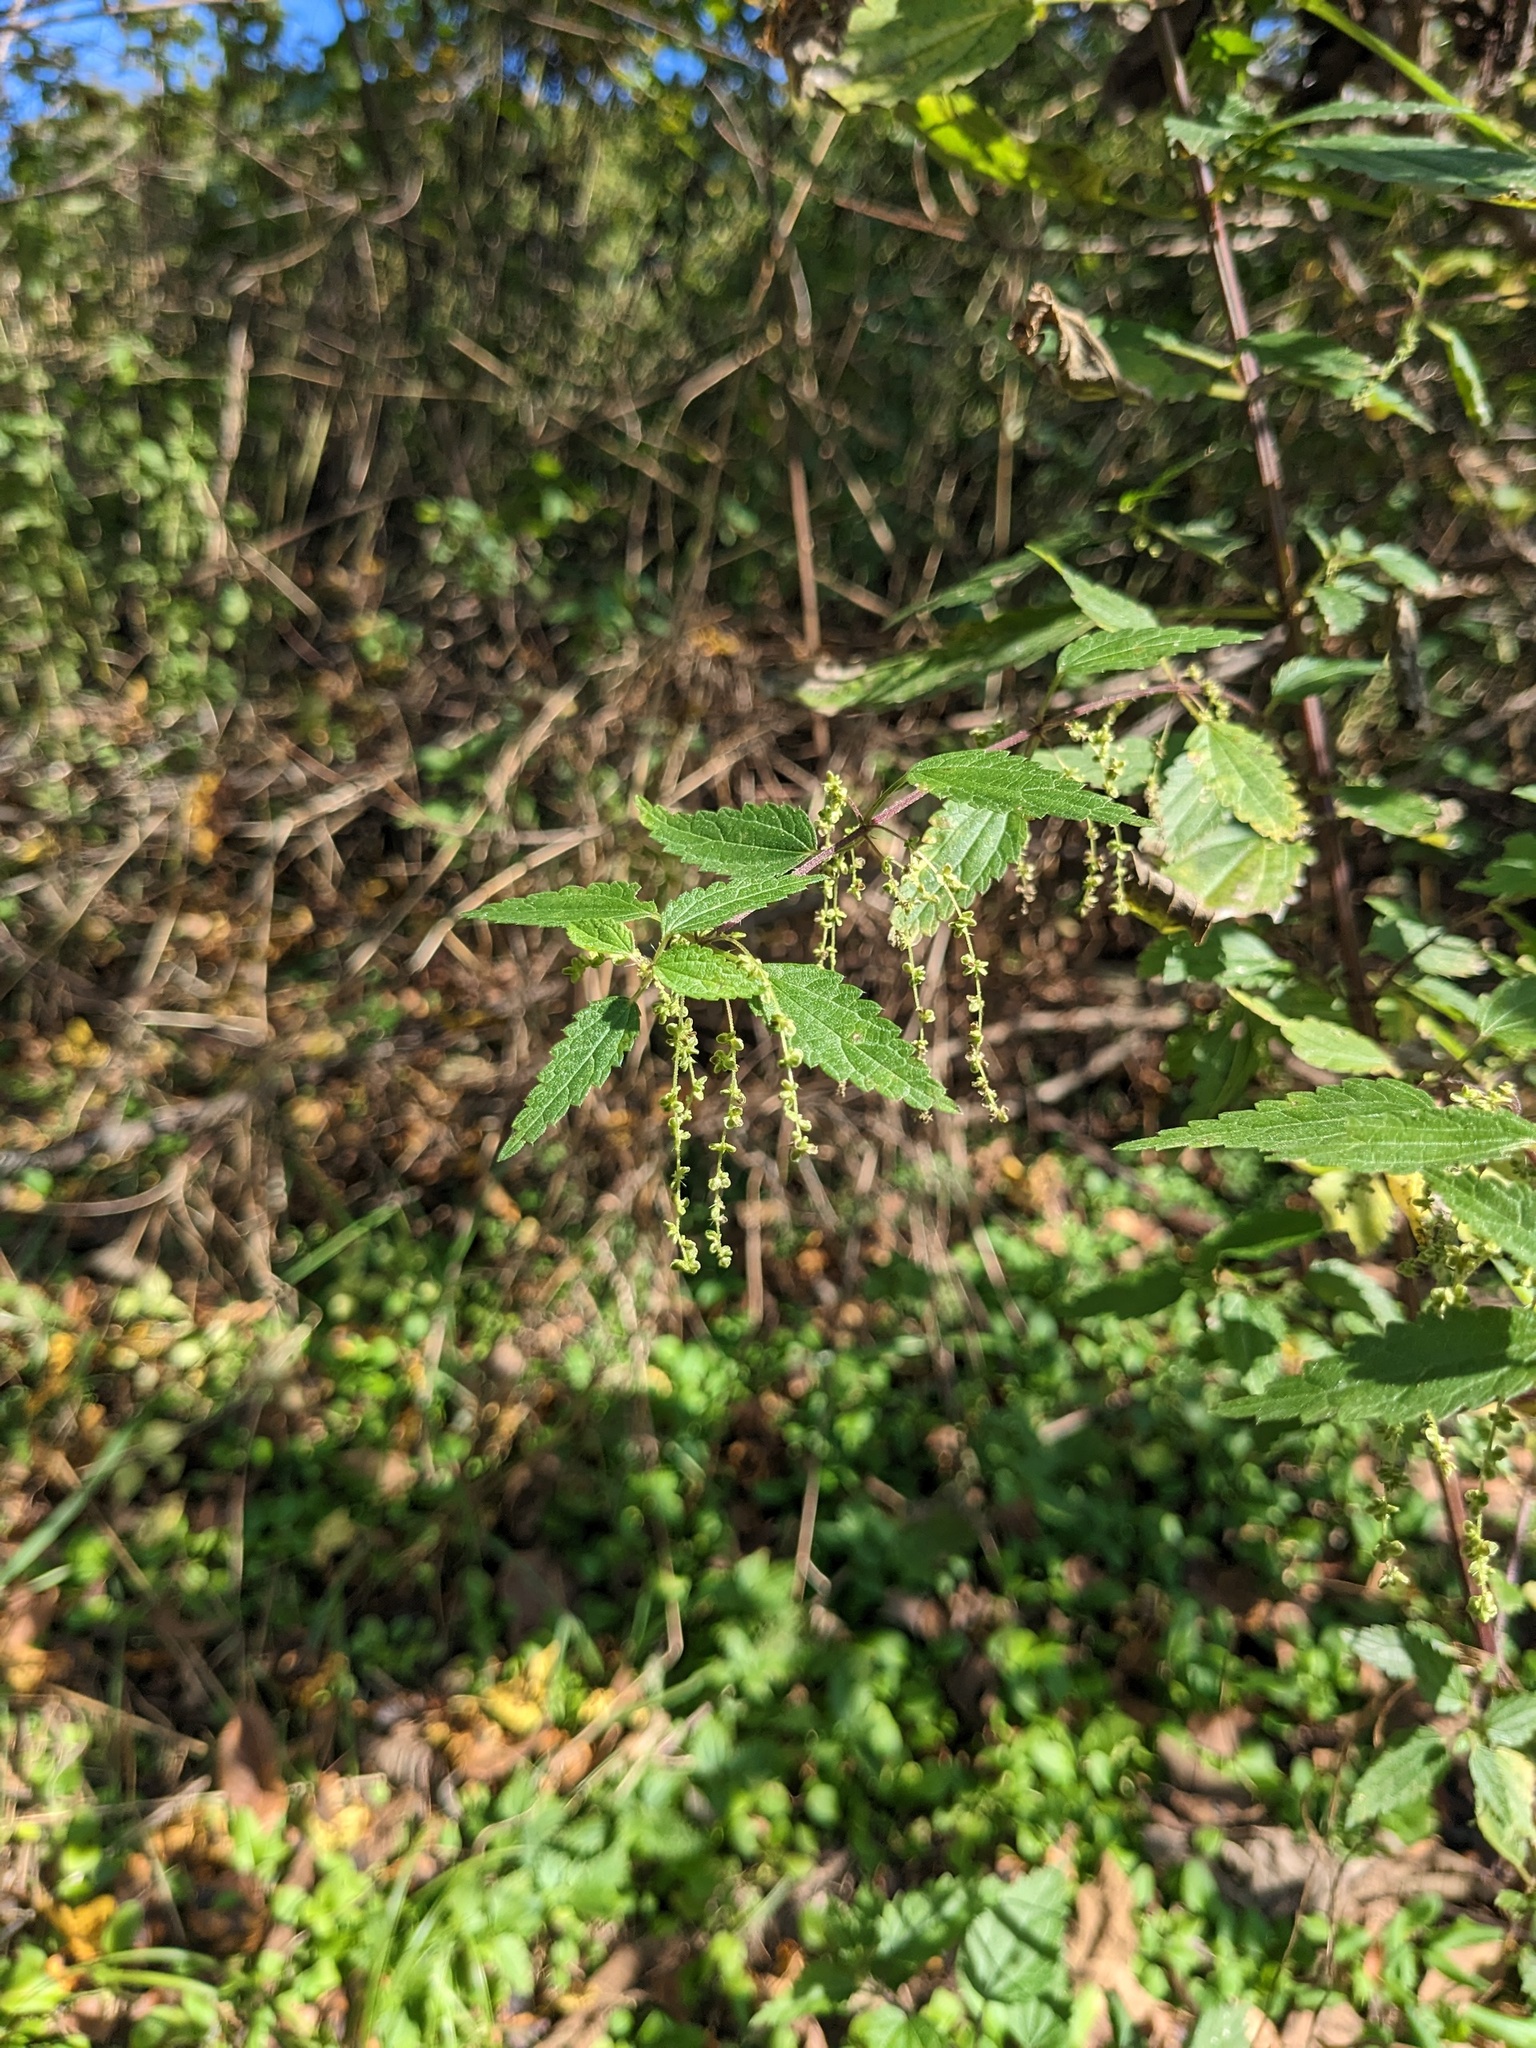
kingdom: Plantae
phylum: Tracheophyta
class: Magnoliopsida
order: Rosales
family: Urticaceae
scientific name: Urticaceae
